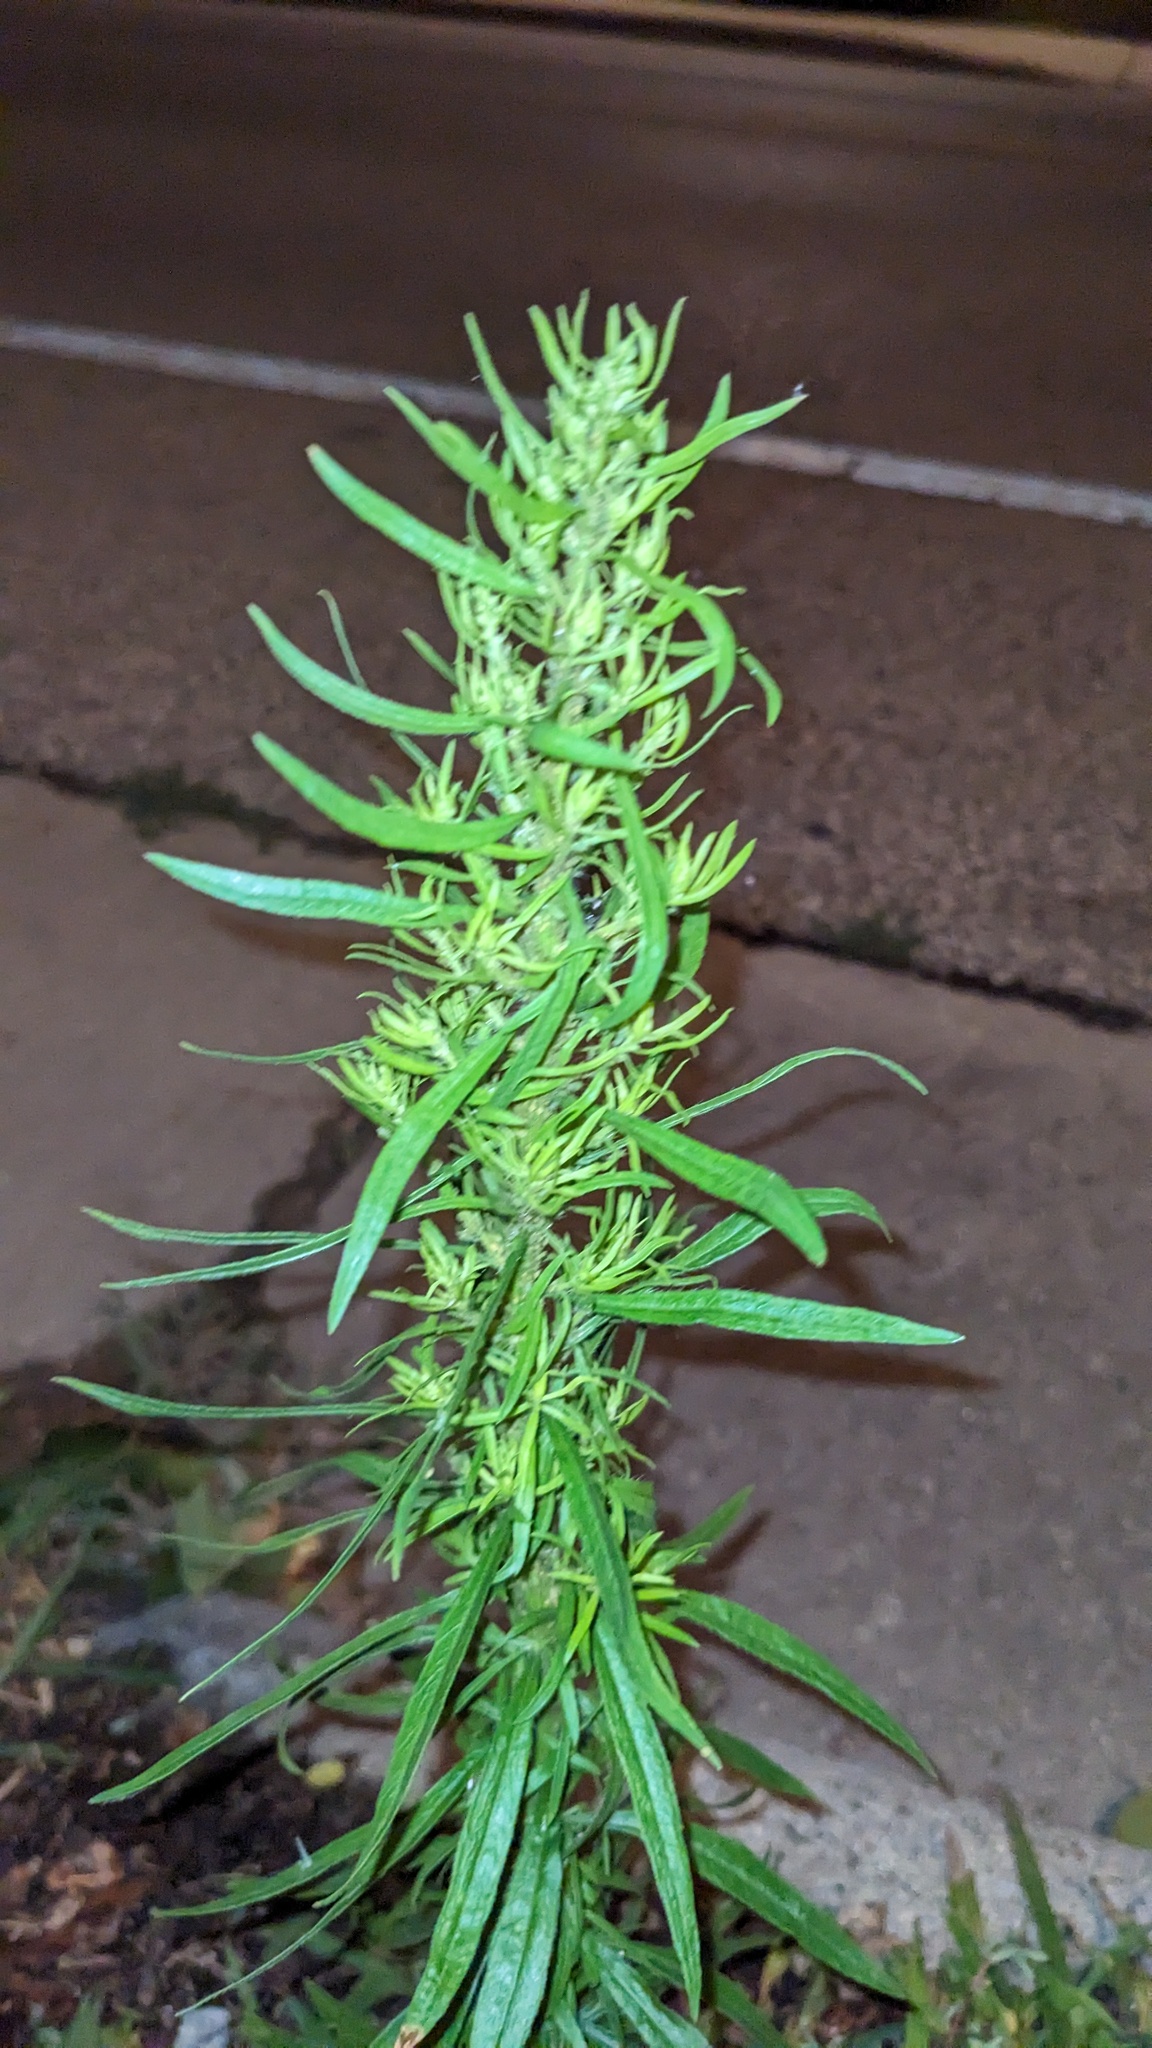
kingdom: Plantae
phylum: Tracheophyta
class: Magnoliopsida
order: Asterales
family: Asteraceae
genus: Erigeron
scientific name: Erigeron canadensis
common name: Canadian fleabane
